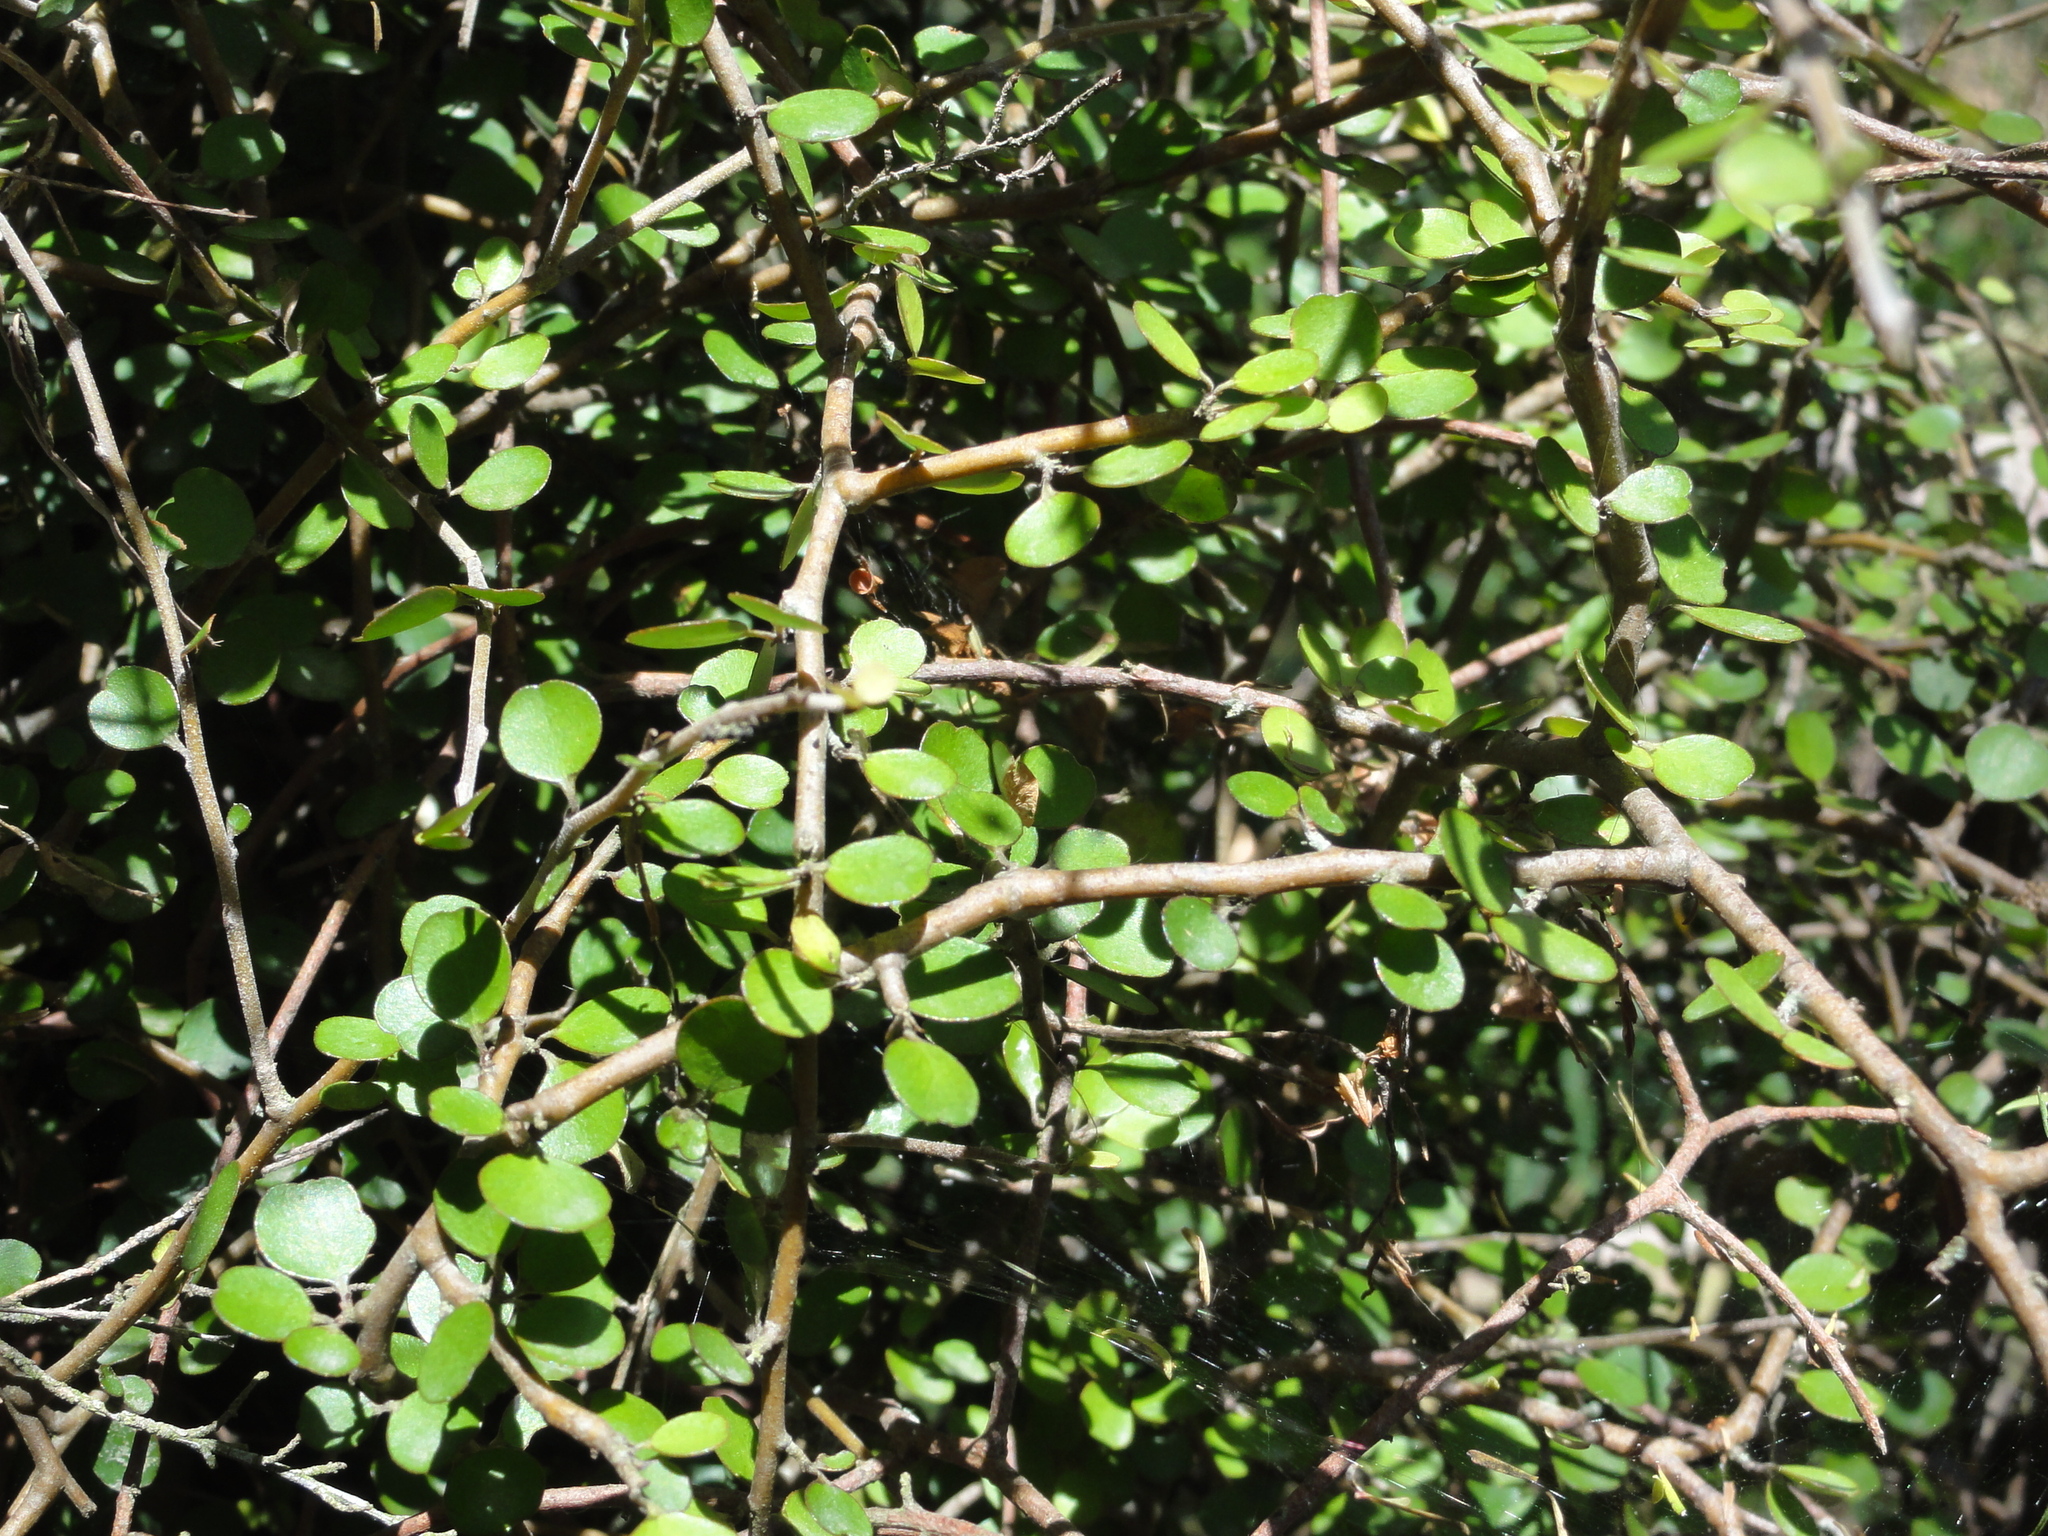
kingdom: Plantae
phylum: Tracheophyta
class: Magnoliopsida
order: Ericales
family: Primulaceae
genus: Myrsine
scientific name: Myrsine divaricata
